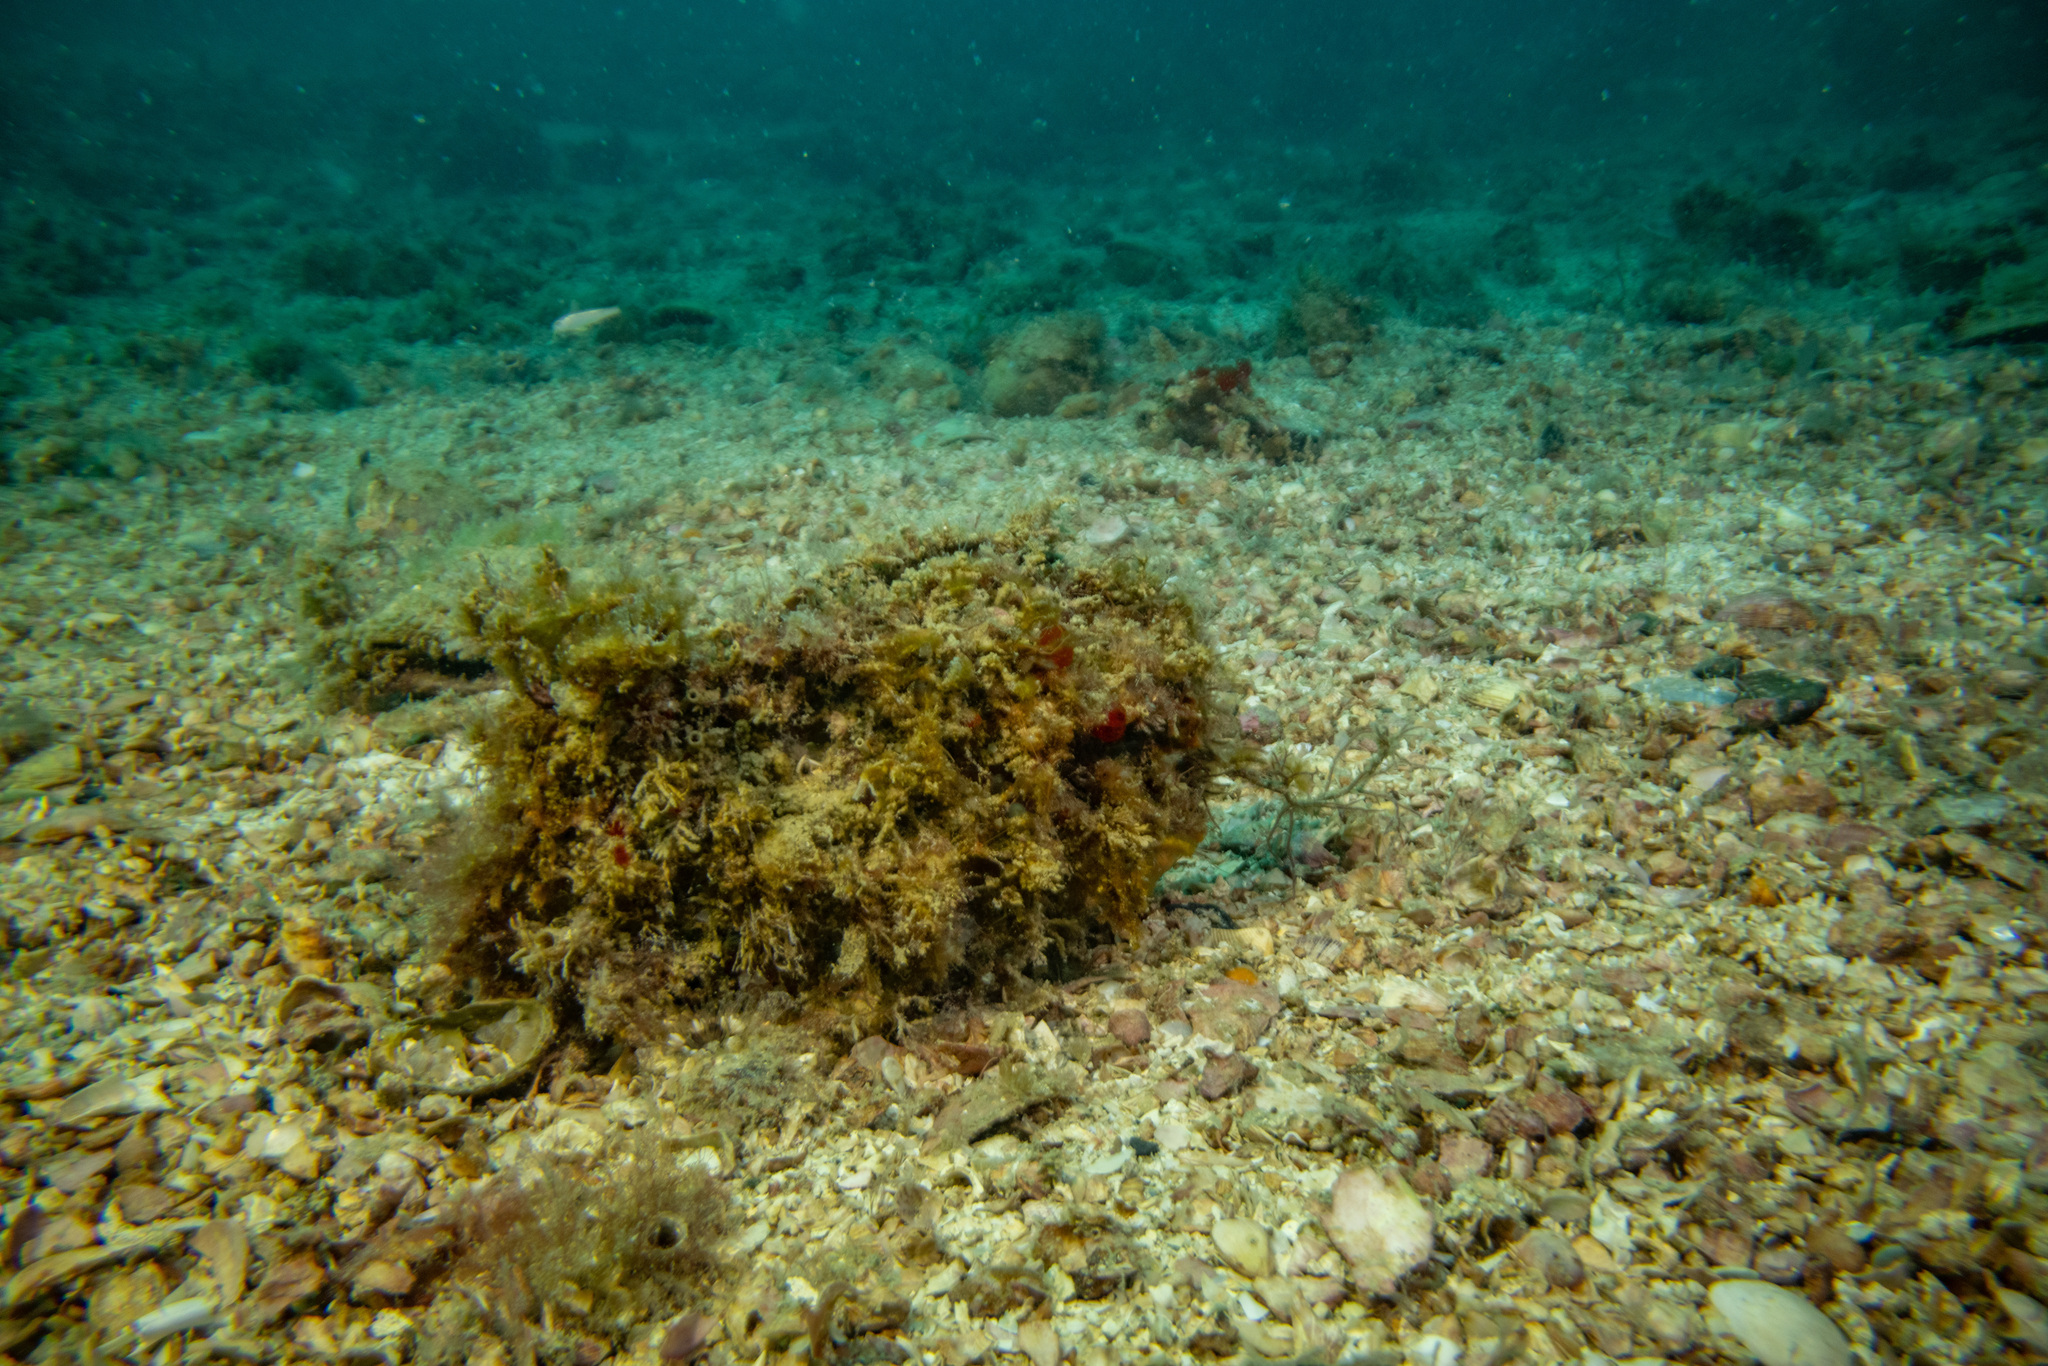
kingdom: Animalia
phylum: Mollusca
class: Bivalvia
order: Ostreida
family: Pinnidae
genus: Atrina
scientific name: Atrina zelandica
